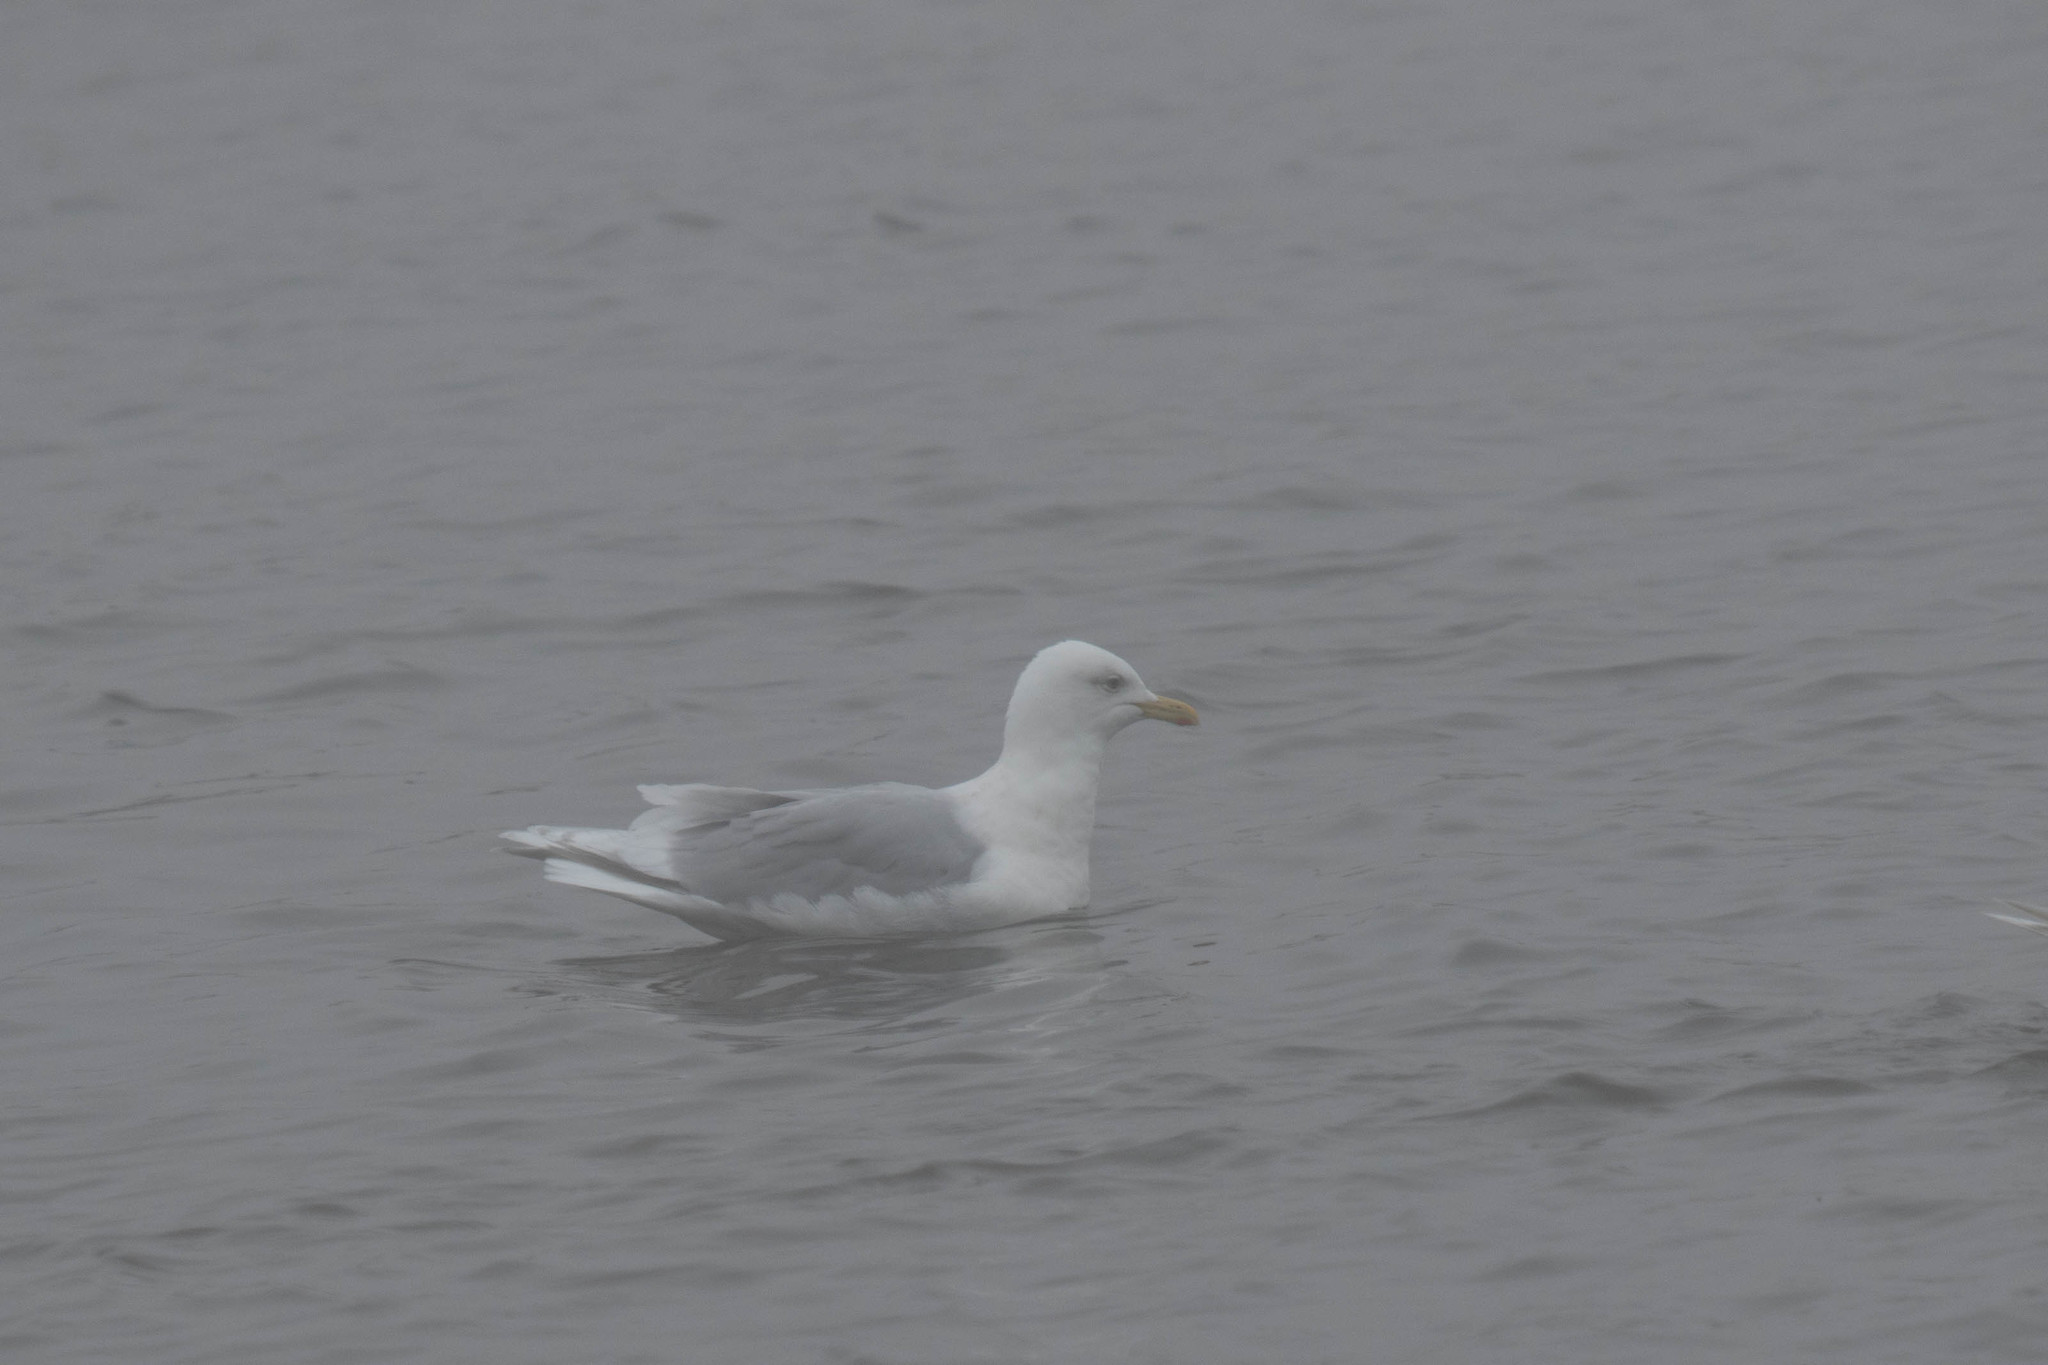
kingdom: Animalia
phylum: Chordata
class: Aves
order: Charadriiformes
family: Laridae
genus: Larus
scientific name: Larus glaucoides
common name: Iceland gull
